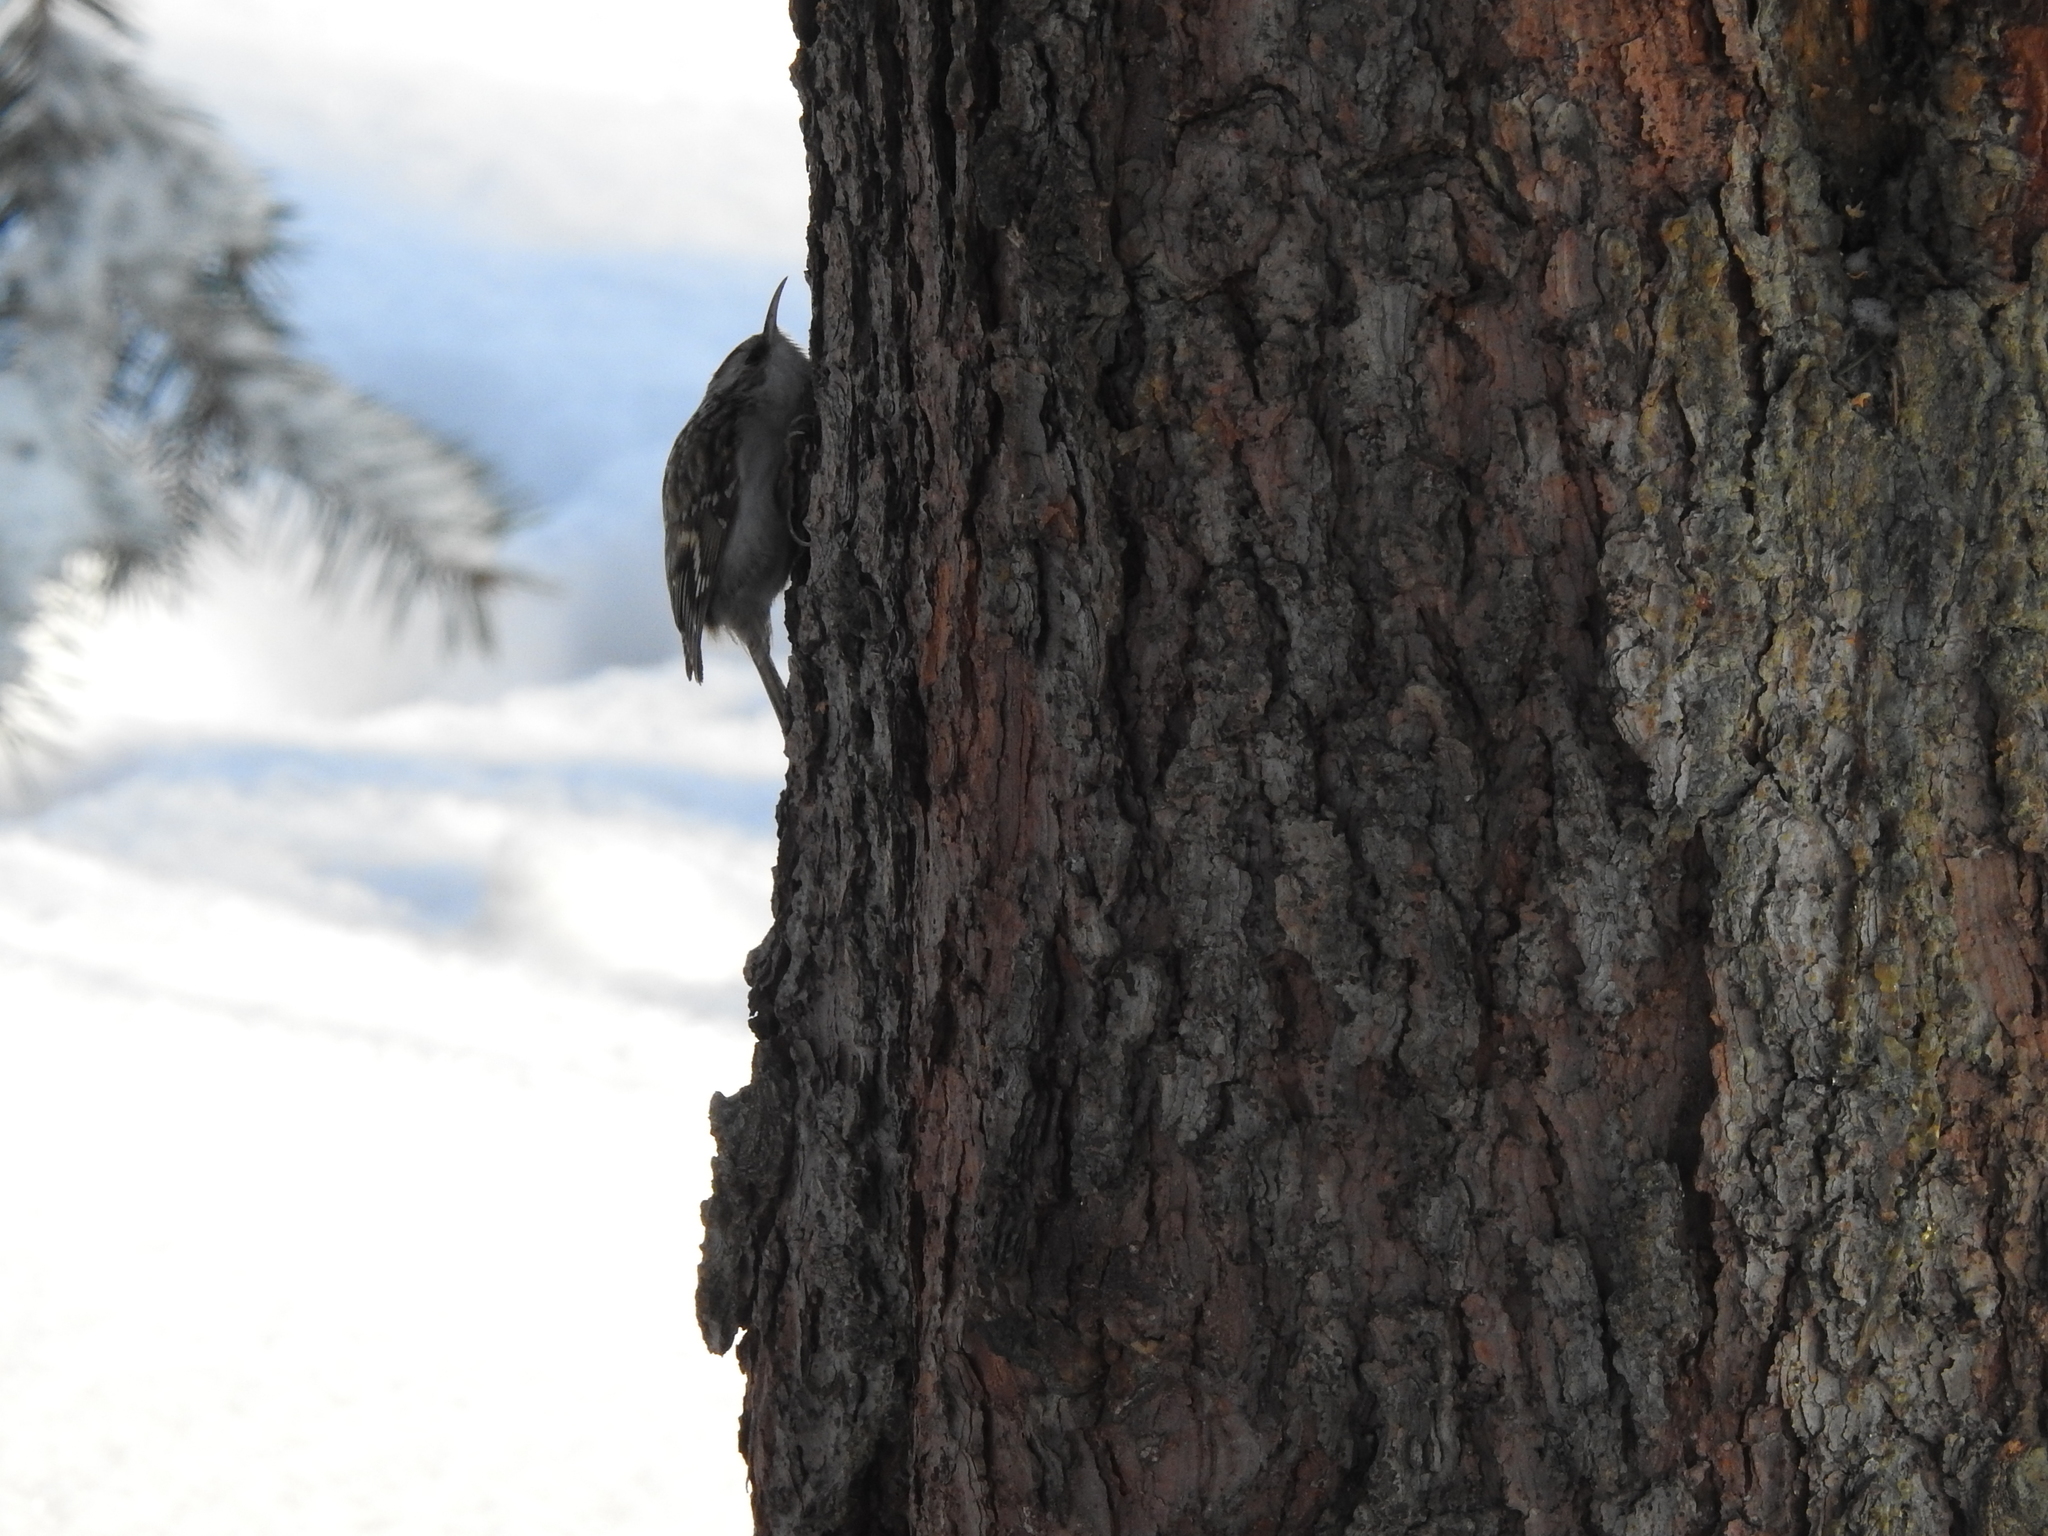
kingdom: Animalia
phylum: Chordata
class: Aves
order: Passeriformes
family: Certhiidae
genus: Certhia
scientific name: Certhia familiaris
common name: Eurasian treecreeper
